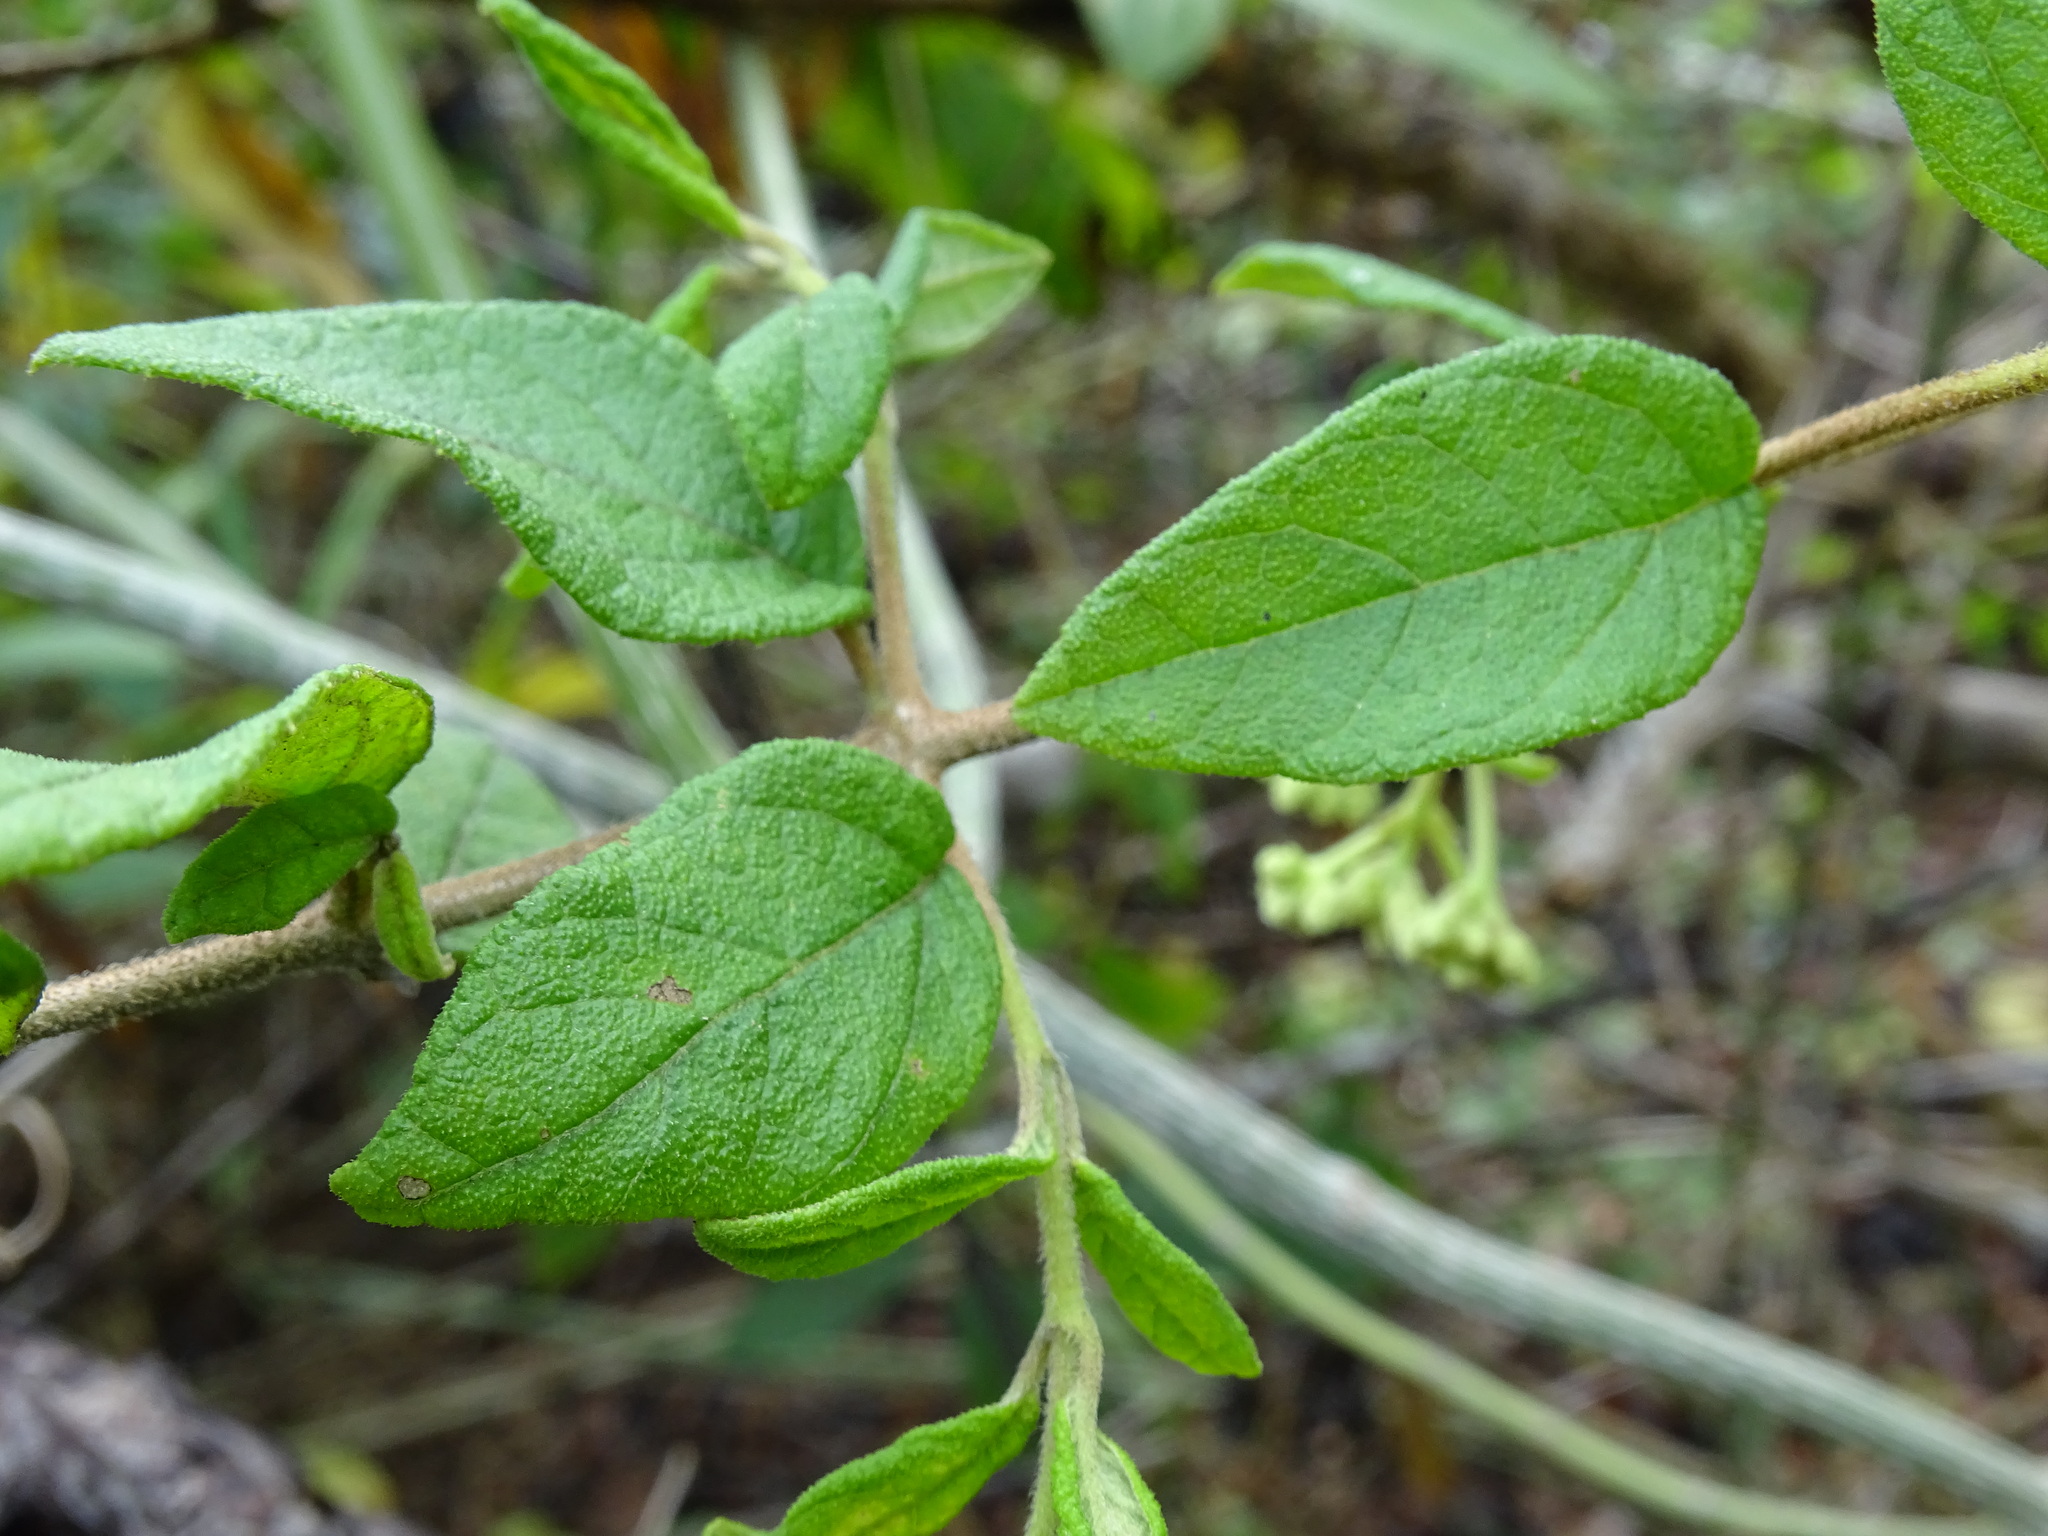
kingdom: Plantae
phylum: Tracheophyta
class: Magnoliopsida
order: Asterales
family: Asteraceae
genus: Otopappus
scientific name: Otopappus guatemalensis
